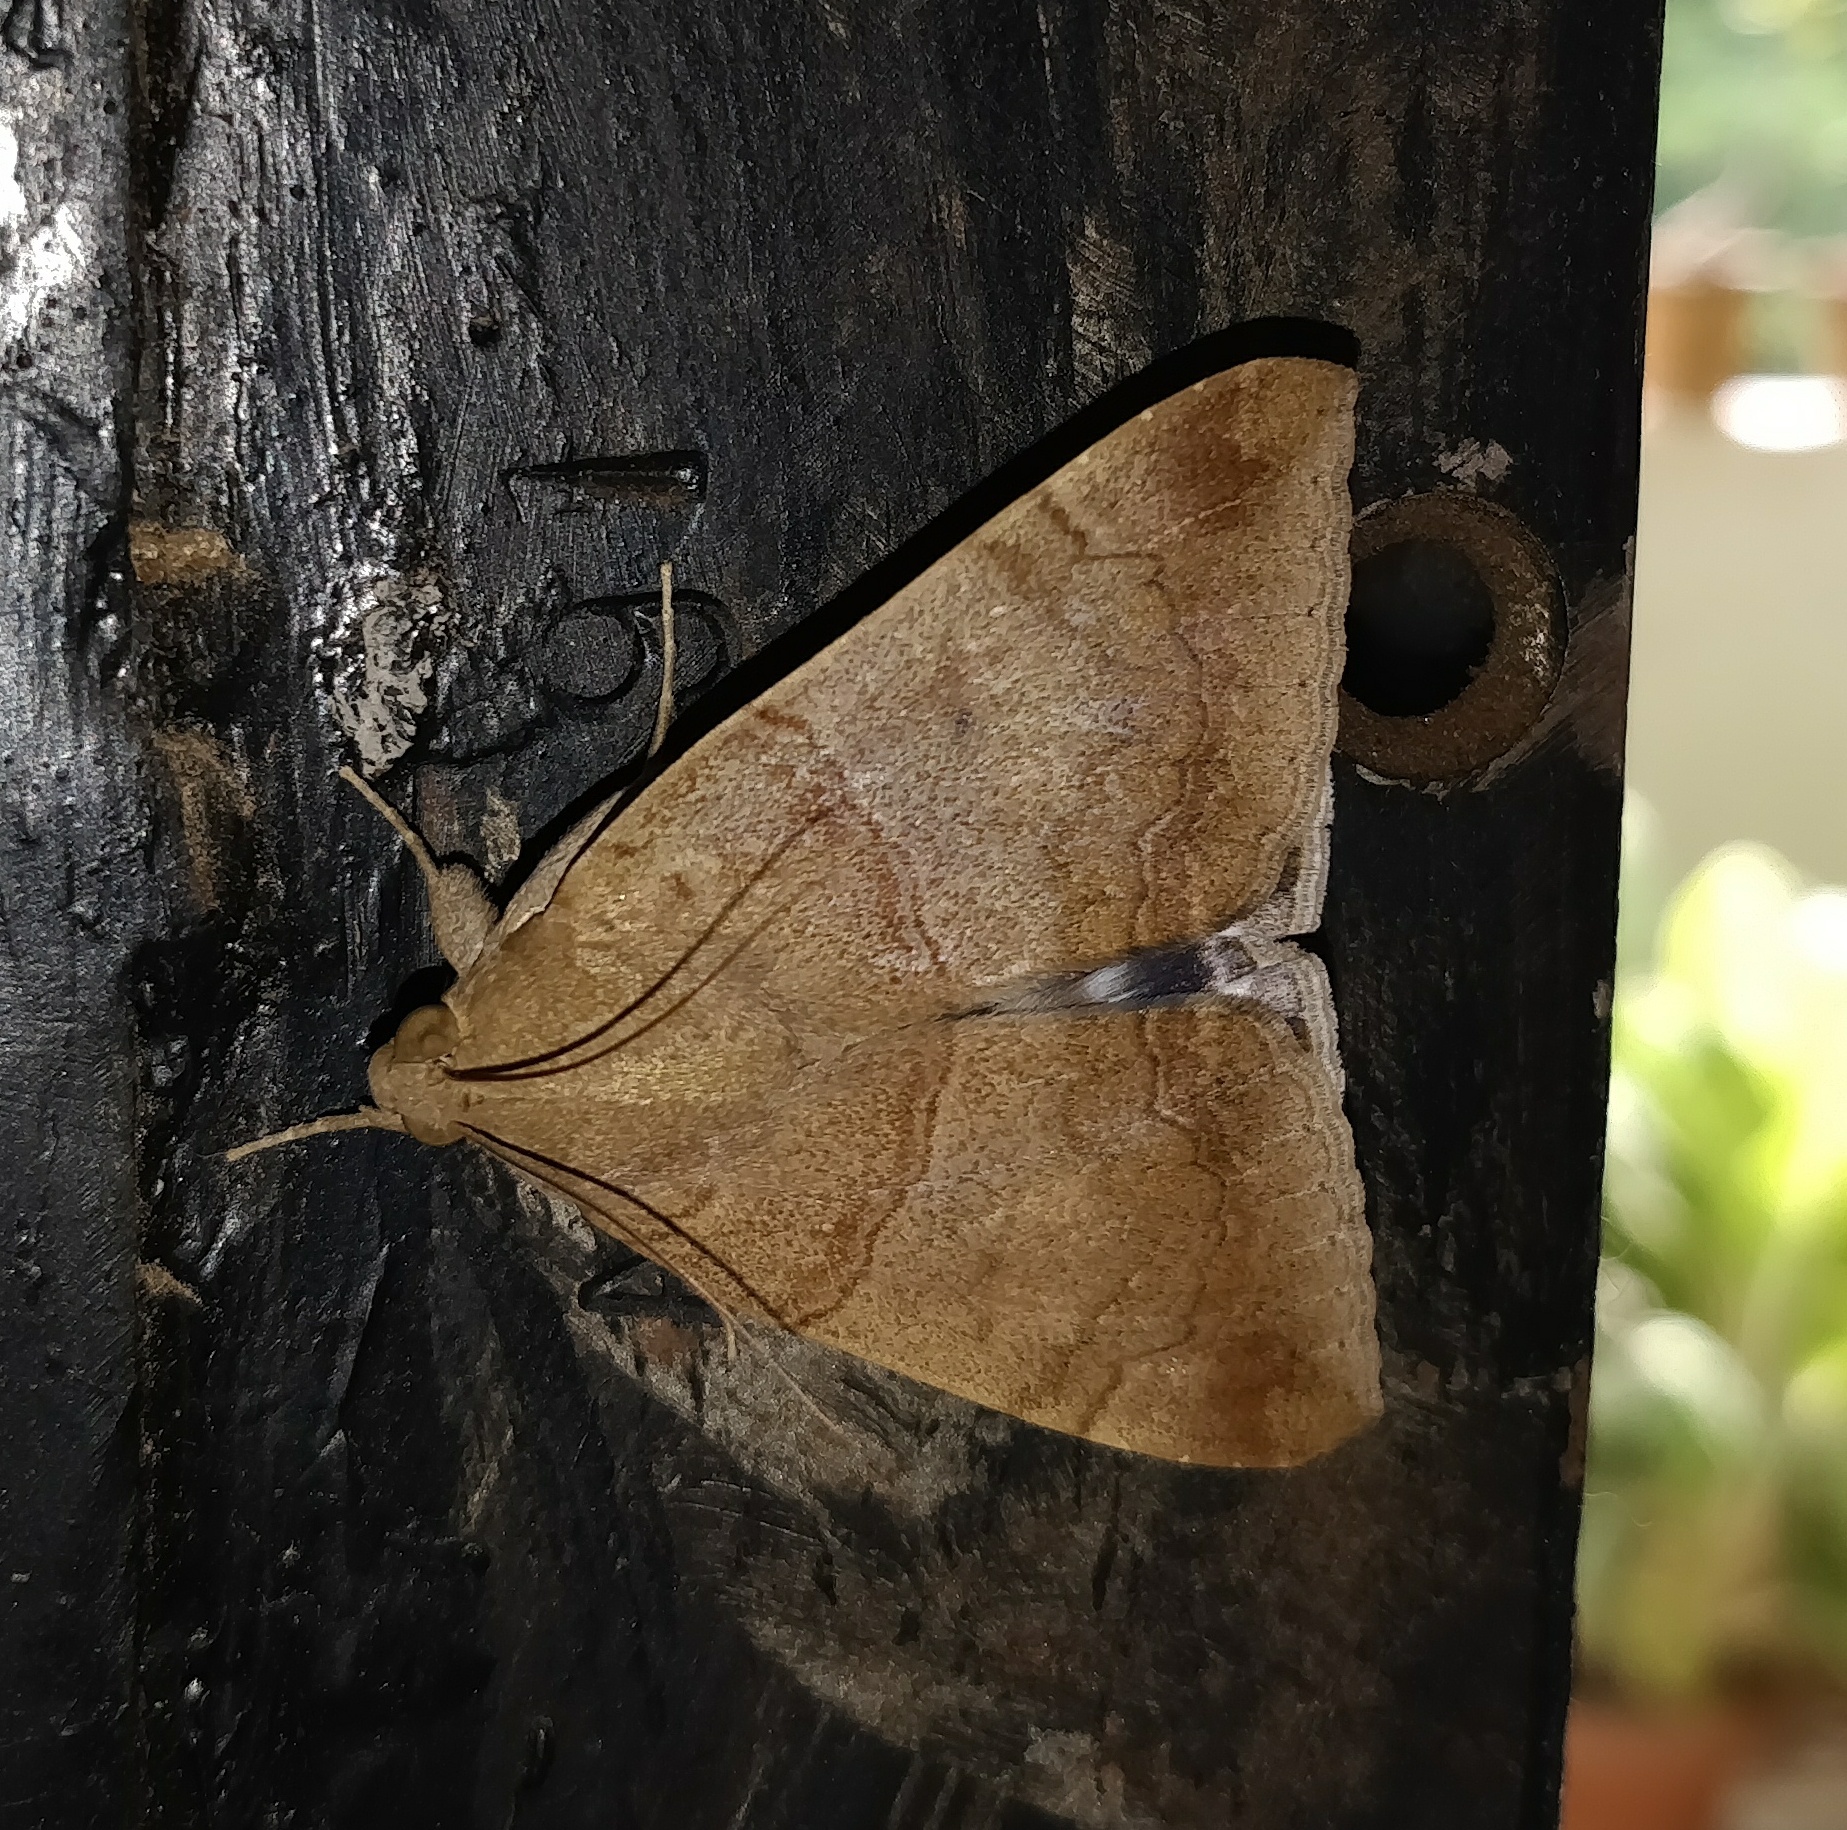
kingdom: Animalia
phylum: Arthropoda
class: Insecta
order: Lepidoptera
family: Erebidae
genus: Achaea
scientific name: Achaea janata
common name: Croton caterpillar
